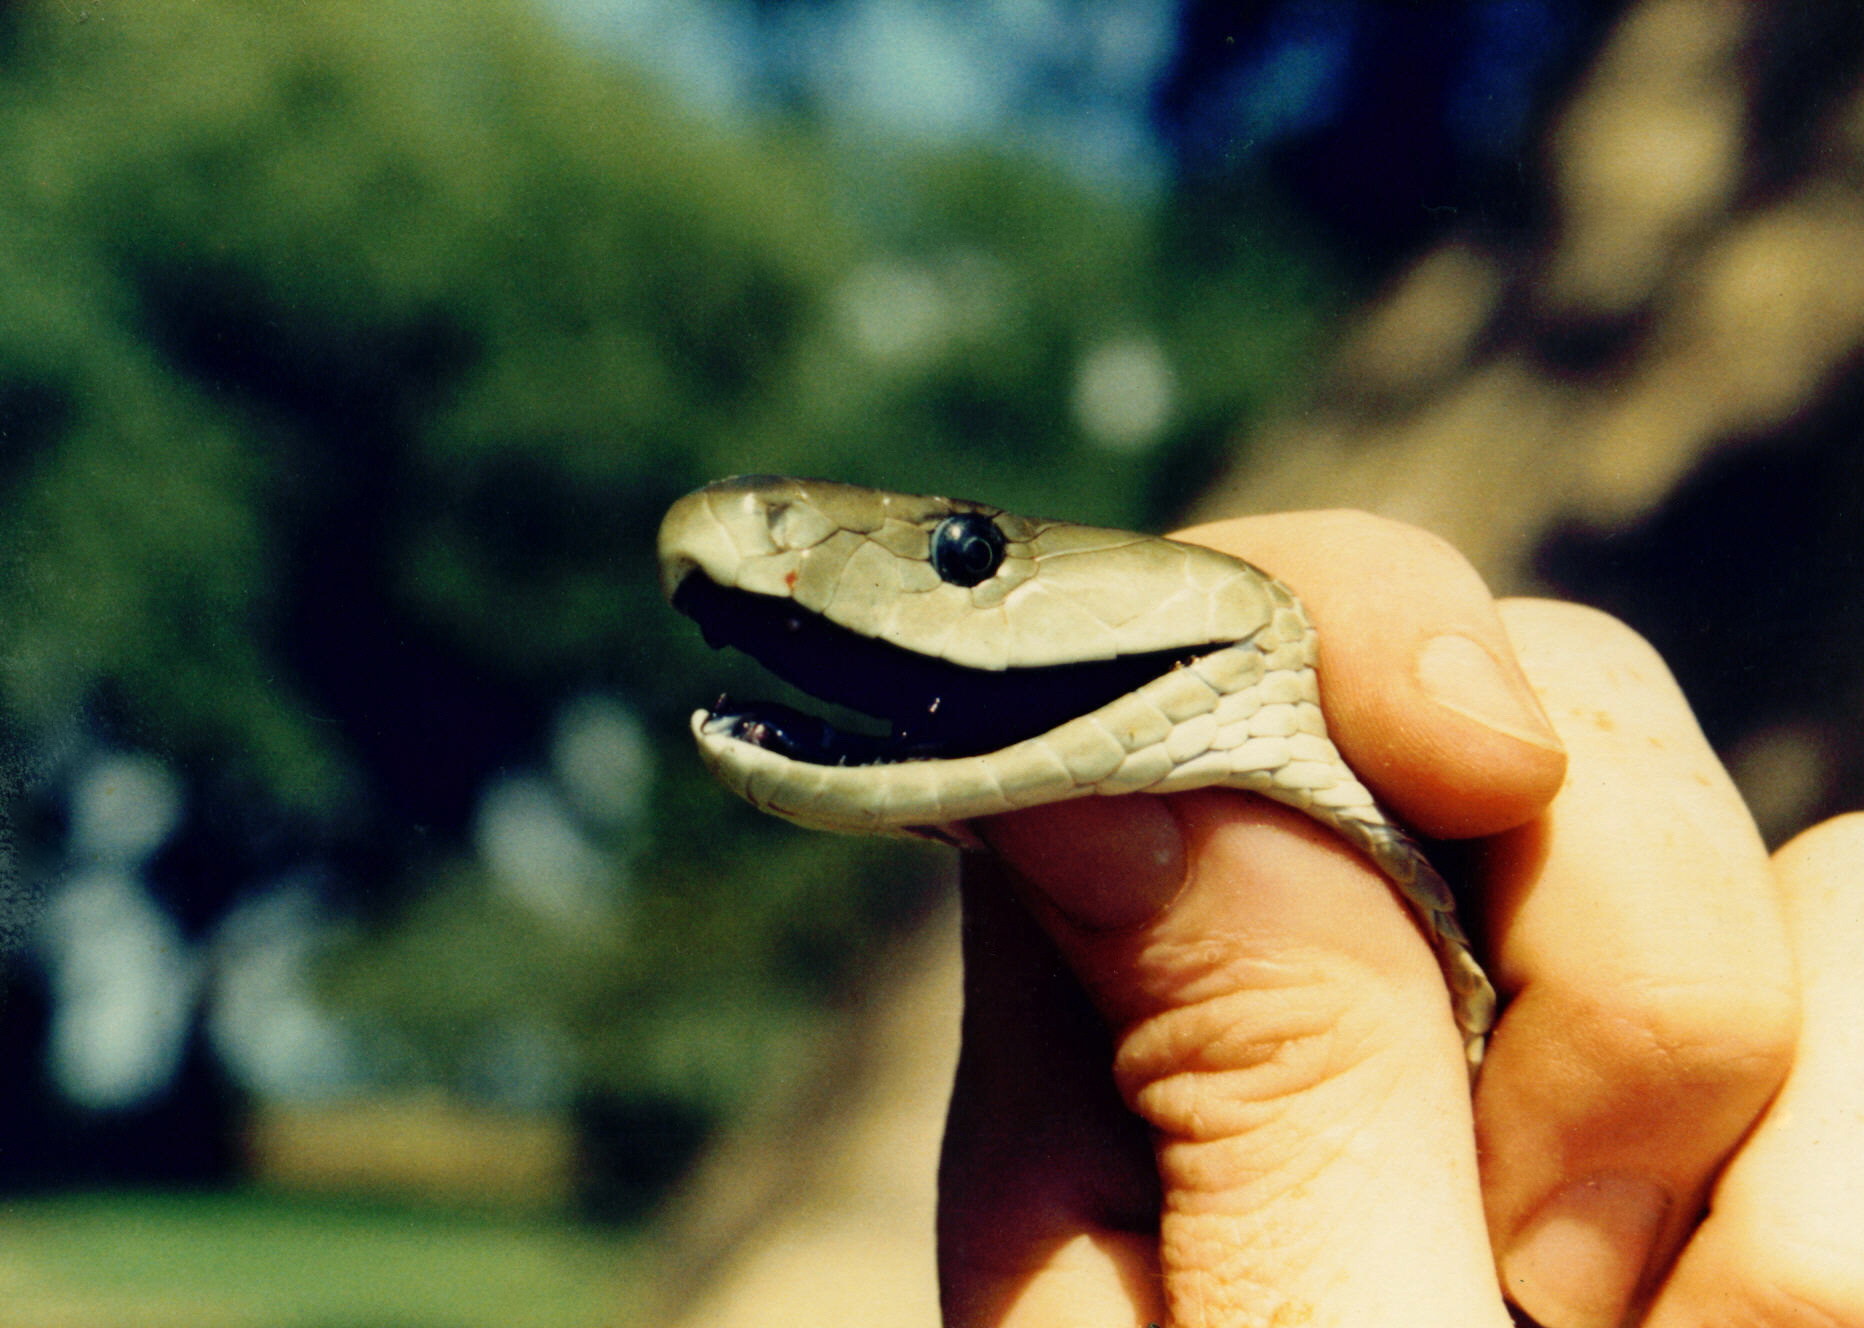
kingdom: Animalia
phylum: Chordata
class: Squamata
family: Elapidae
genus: Dendroaspis
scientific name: Dendroaspis polylepis
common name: Black mamba
